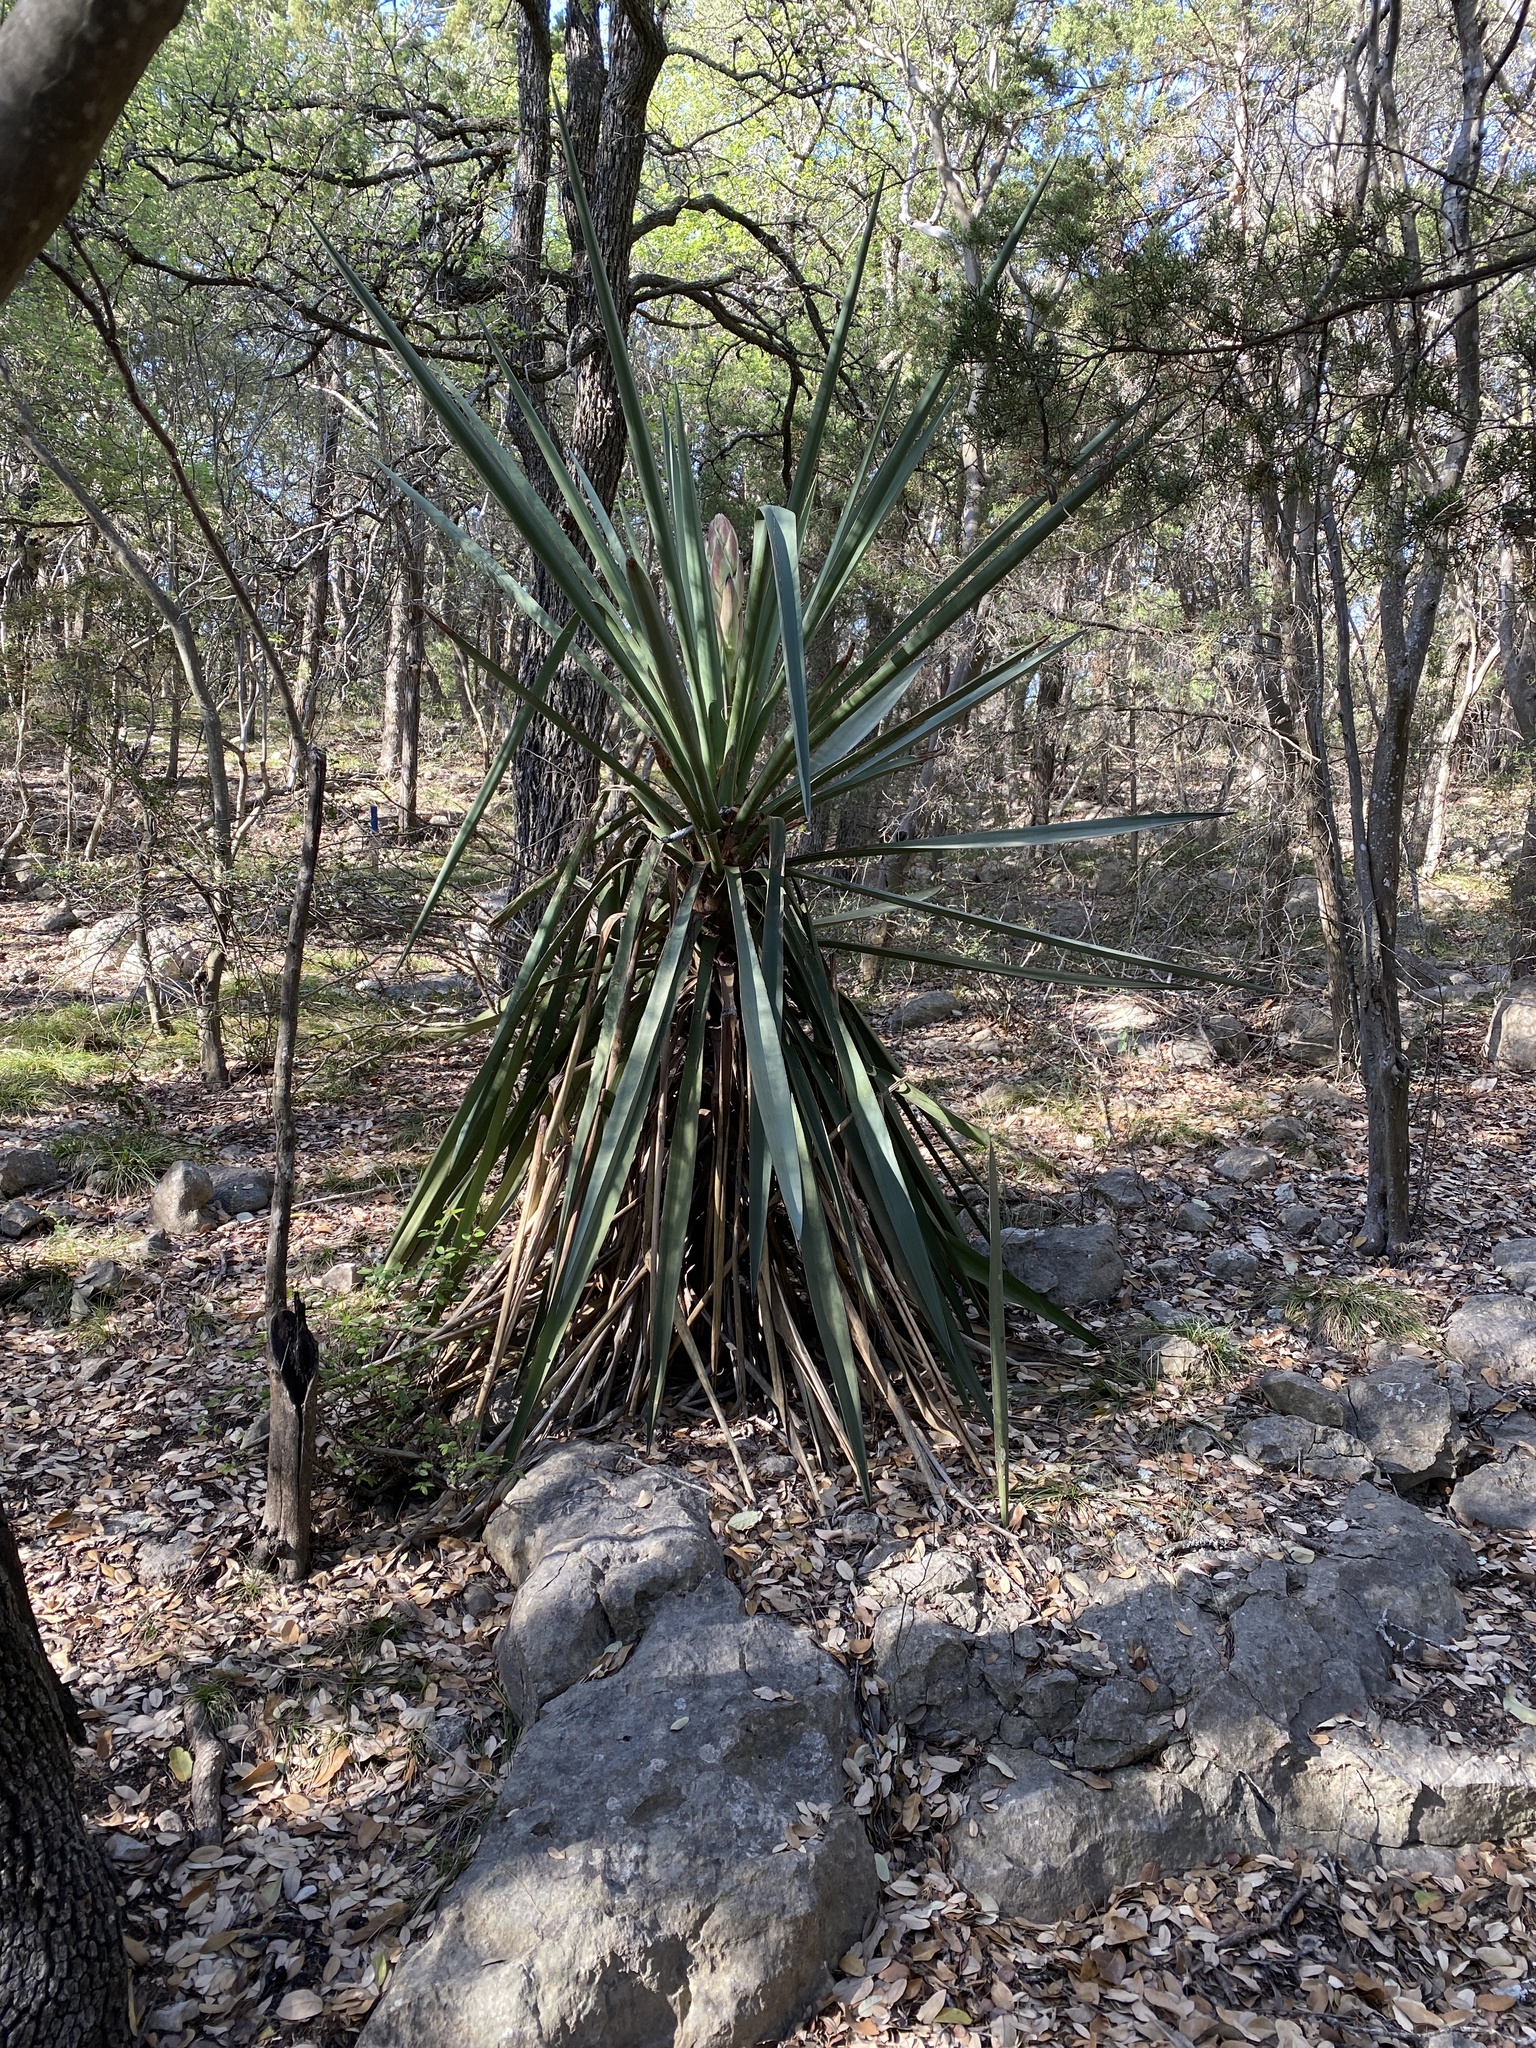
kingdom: Plantae
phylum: Tracheophyta
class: Liliopsida
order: Asparagales
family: Asparagaceae
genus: Yucca
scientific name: Yucca treculiana
